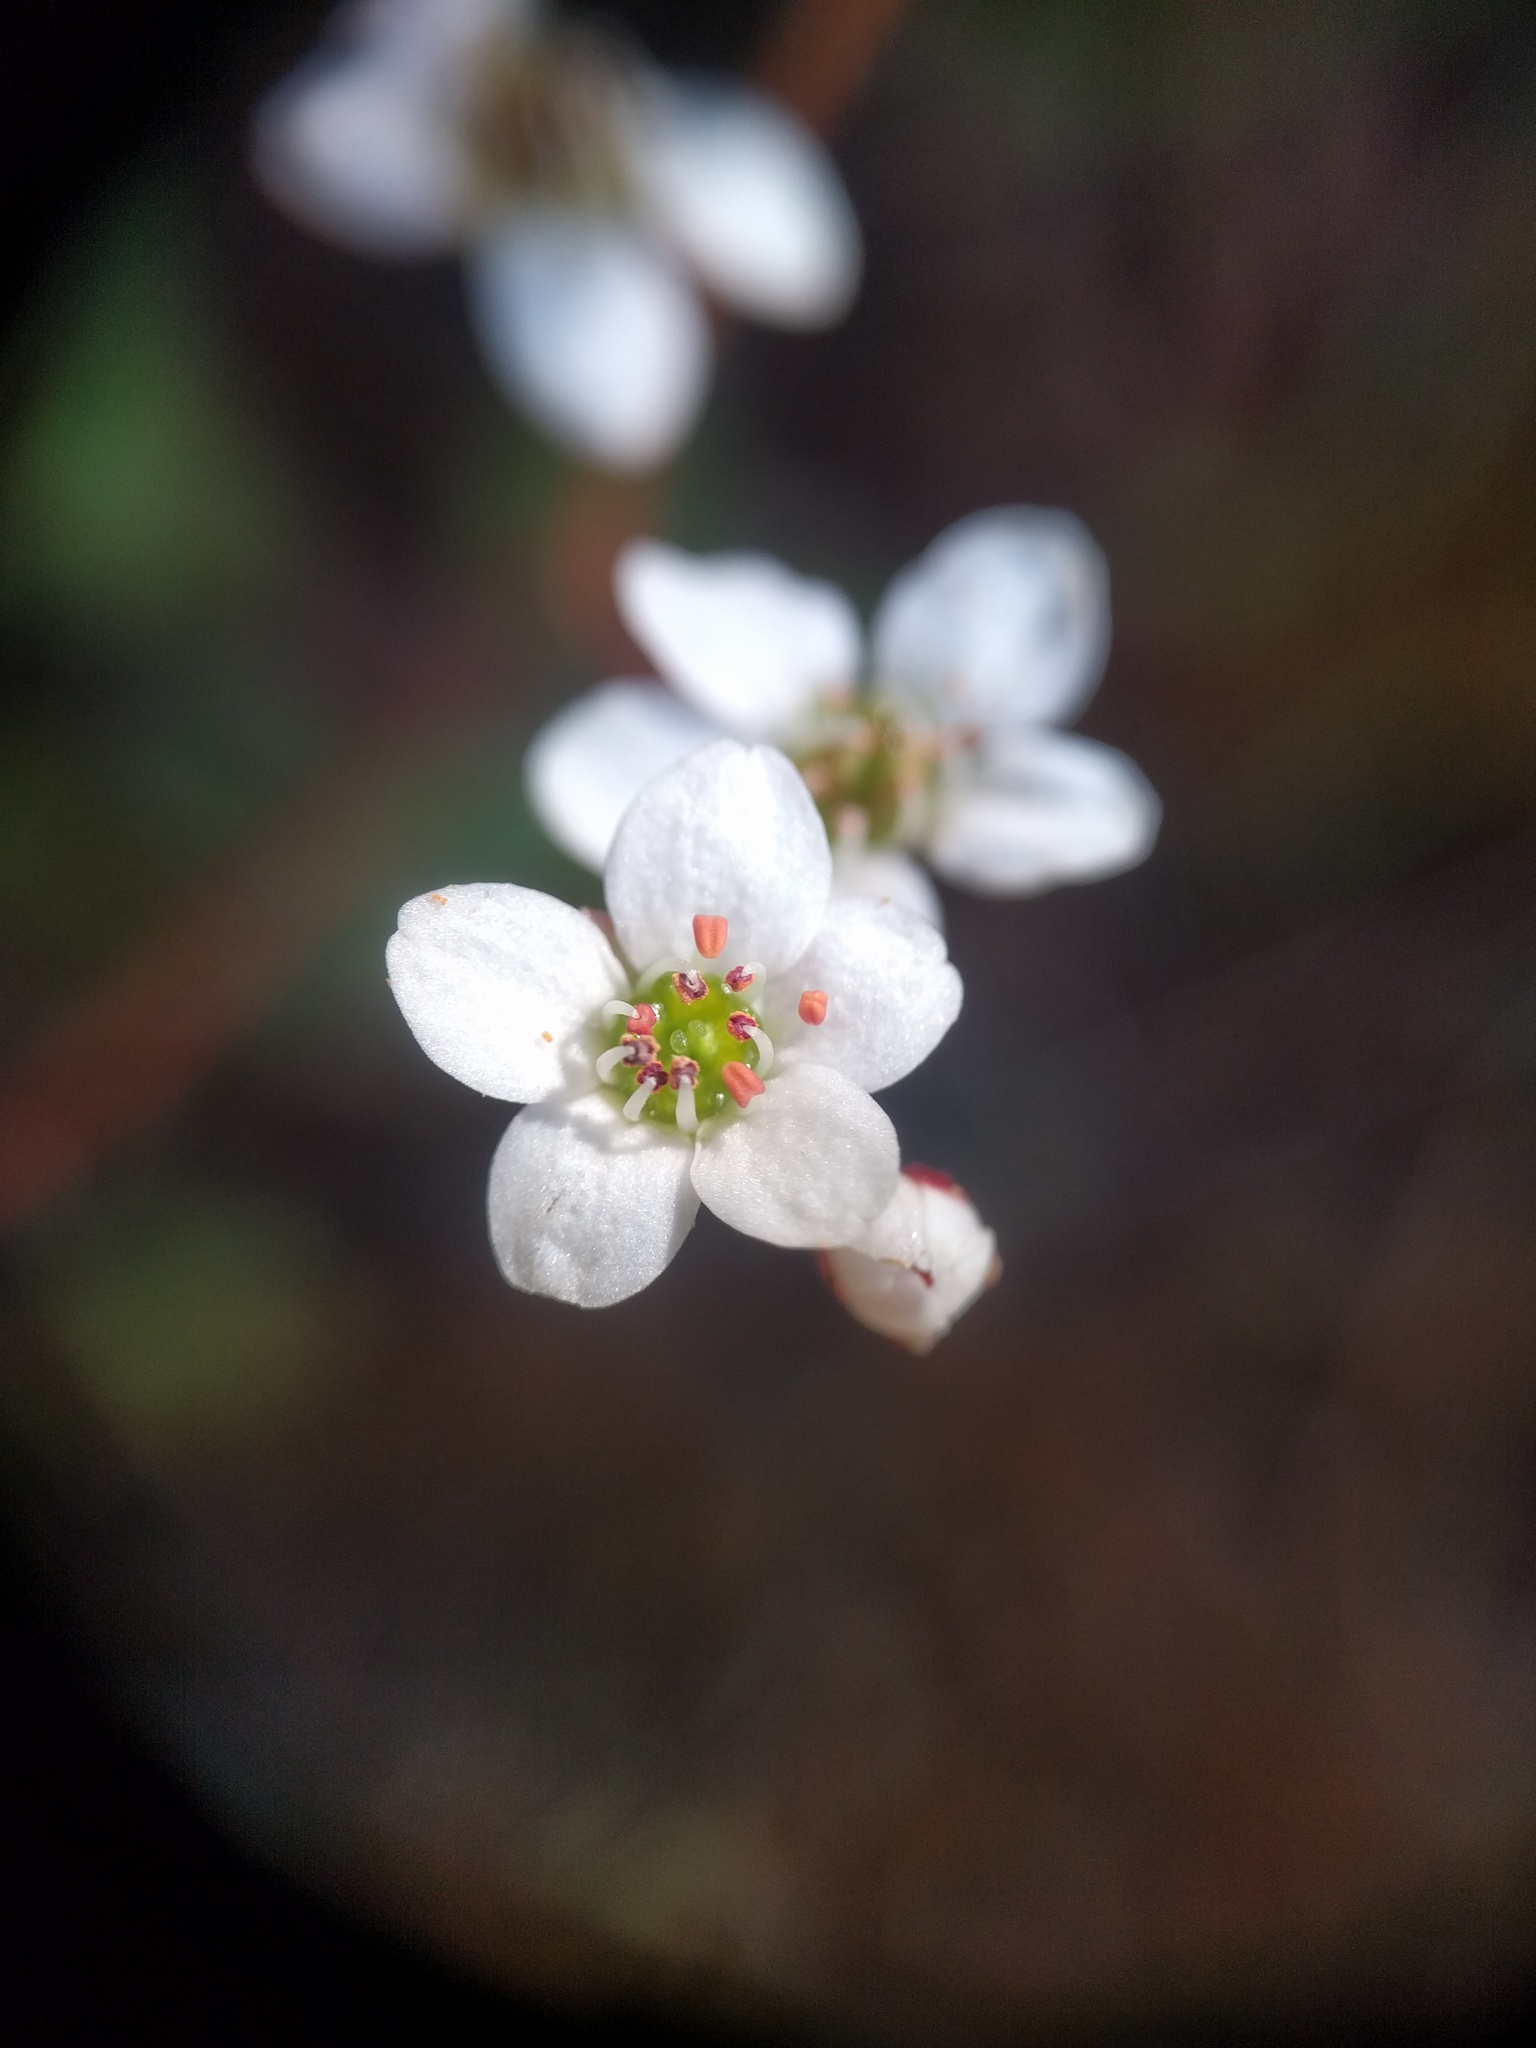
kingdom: Plantae
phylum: Tracheophyta
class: Magnoliopsida
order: Saxifragales
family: Saxifragaceae
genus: Micranthes
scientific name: Micranthes californica
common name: California saxifrage
